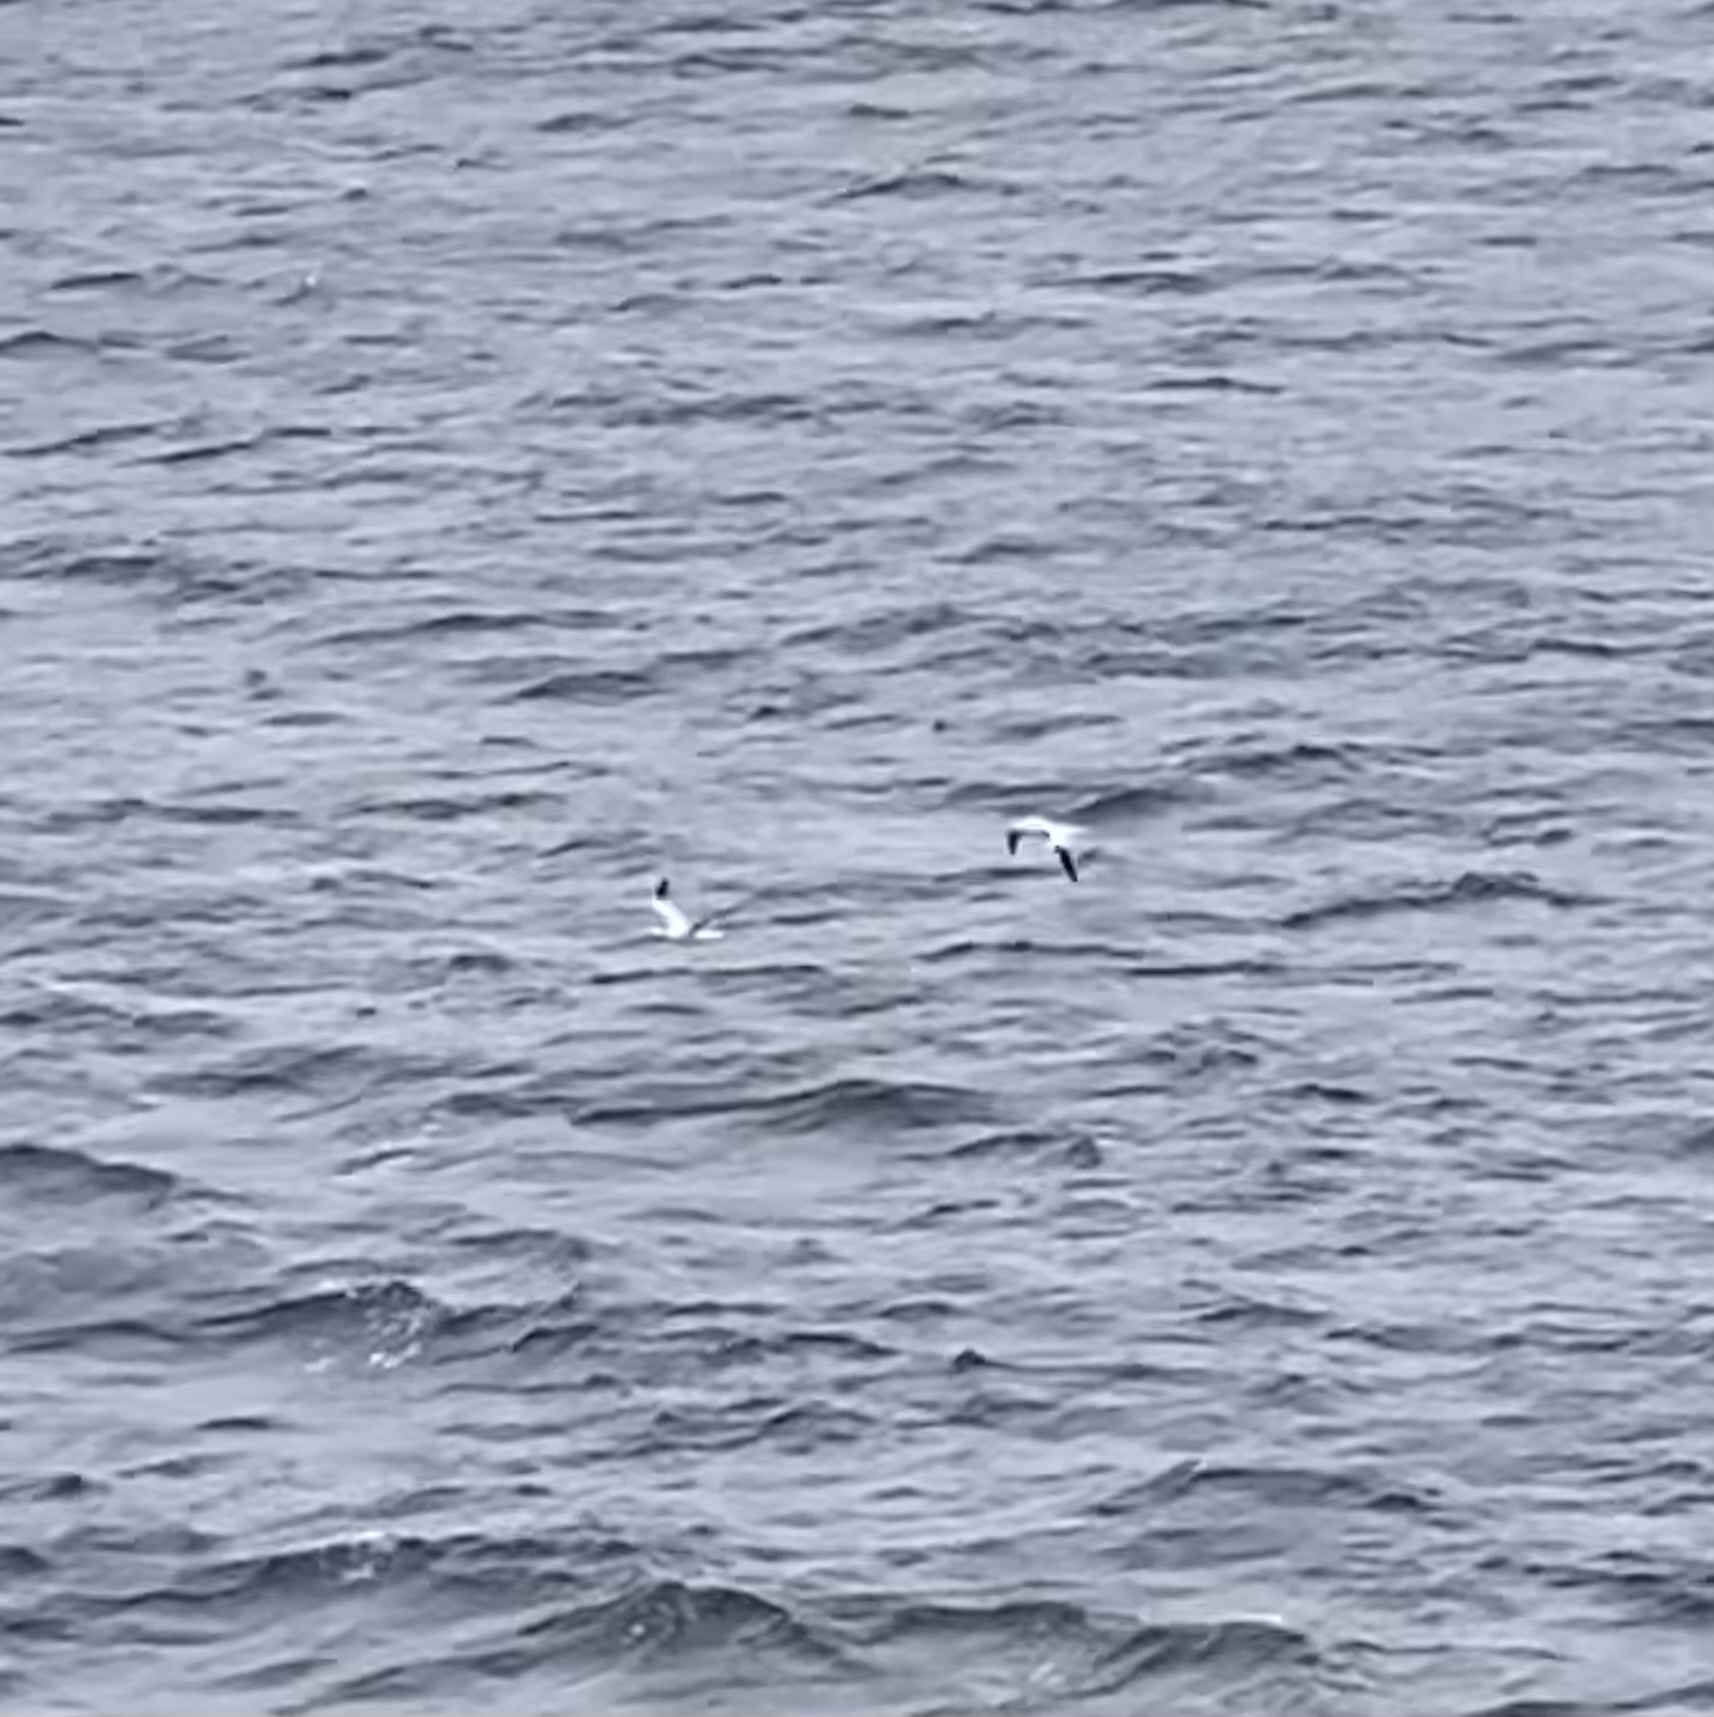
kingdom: Animalia
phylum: Chordata
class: Aves
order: Suliformes
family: Sulidae
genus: Morus
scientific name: Morus bassanus
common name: Northern gannet
